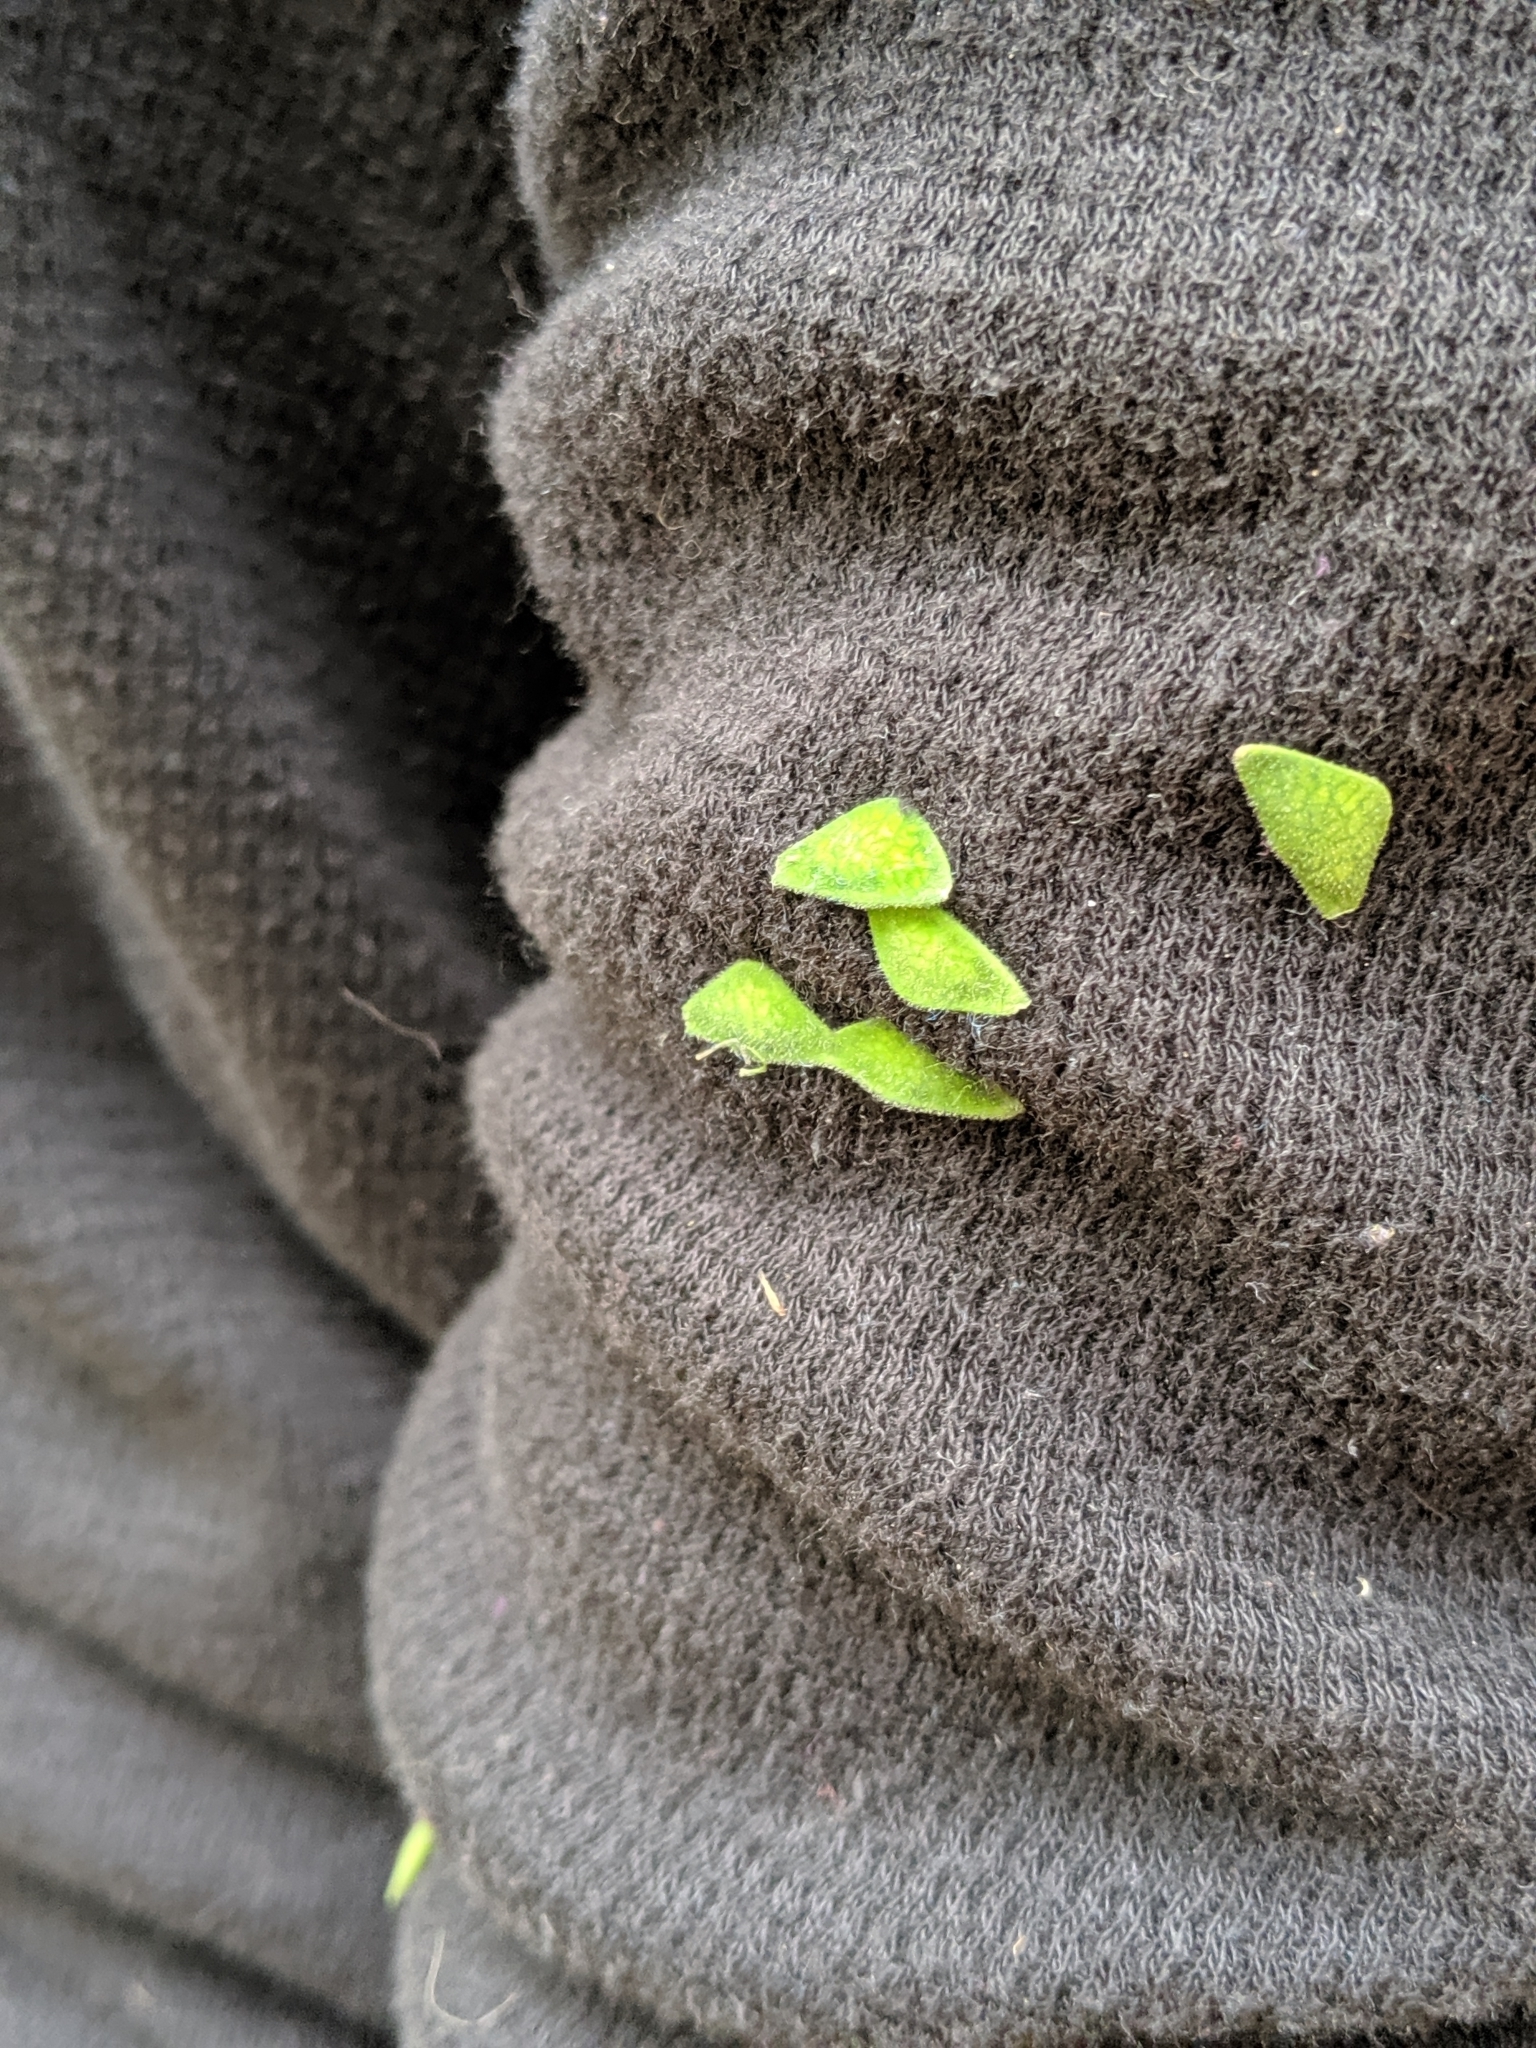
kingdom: Plantae
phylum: Tracheophyta
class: Magnoliopsida
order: Fabales
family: Fabaceae
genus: Desmodium
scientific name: Desmodium
